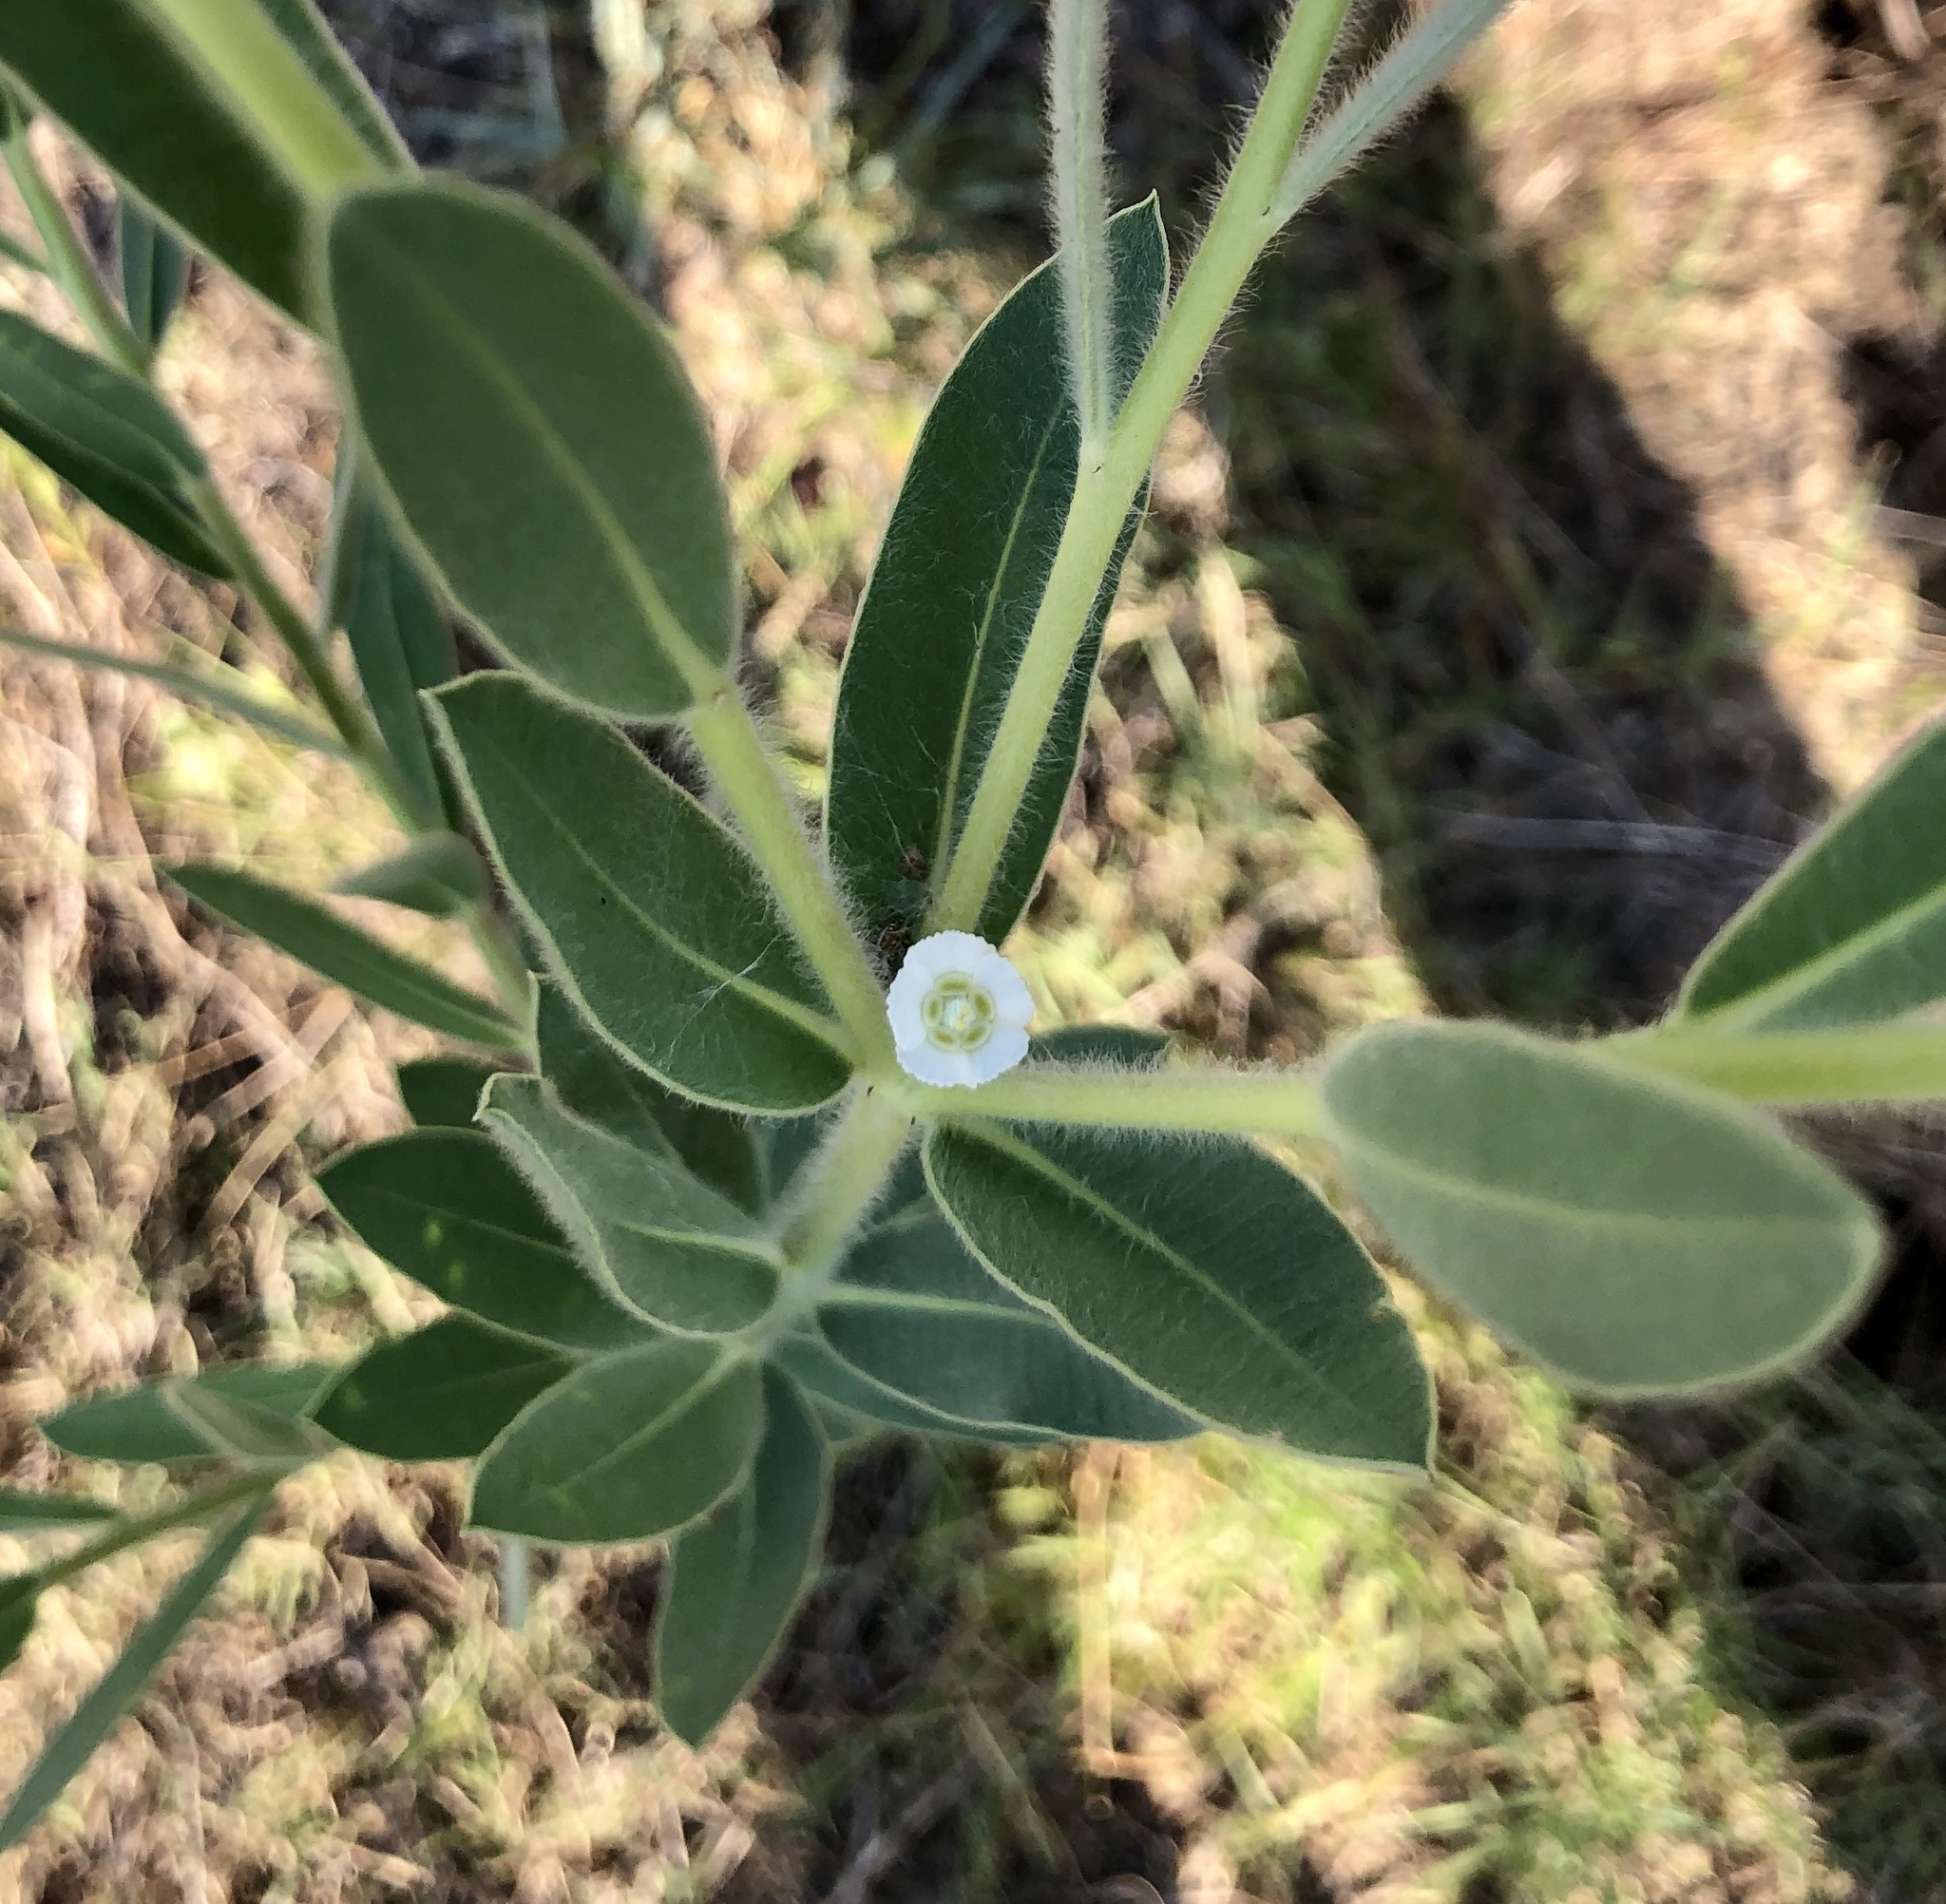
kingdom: Plantae
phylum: Tracheophyta
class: Magnoliopsida
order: Malpighiales
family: Euphorbiaceae
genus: Euphorbia
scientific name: Euphorbia bicolor
